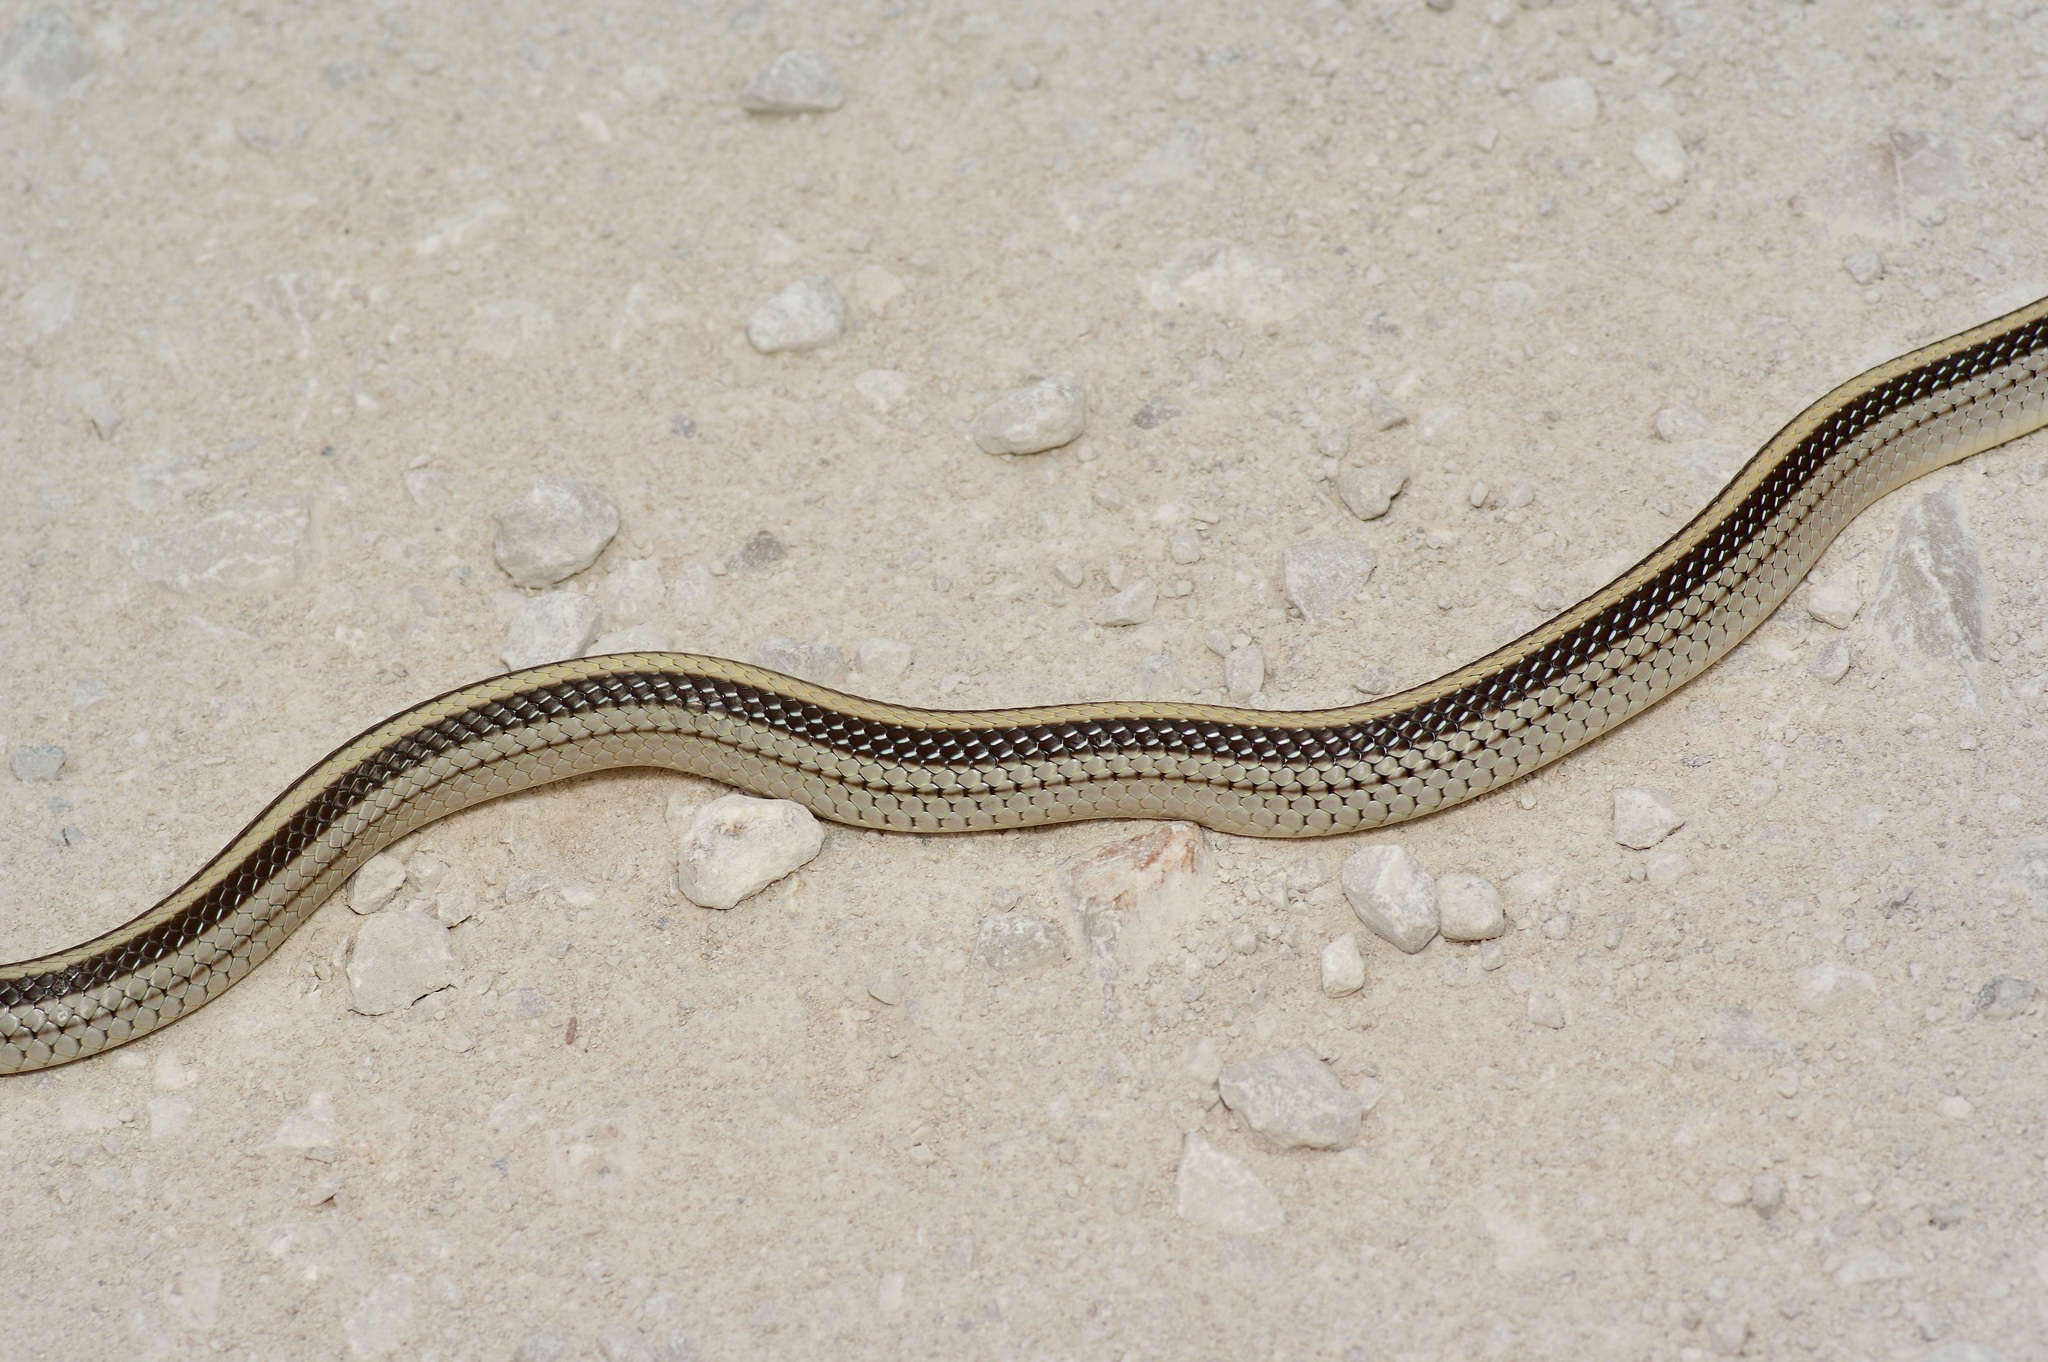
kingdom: Animalia
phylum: Chordata
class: Squamata
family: Colubridae
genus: Salvadora
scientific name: Salvadora grahamiae
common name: Mountain patchnose snake
